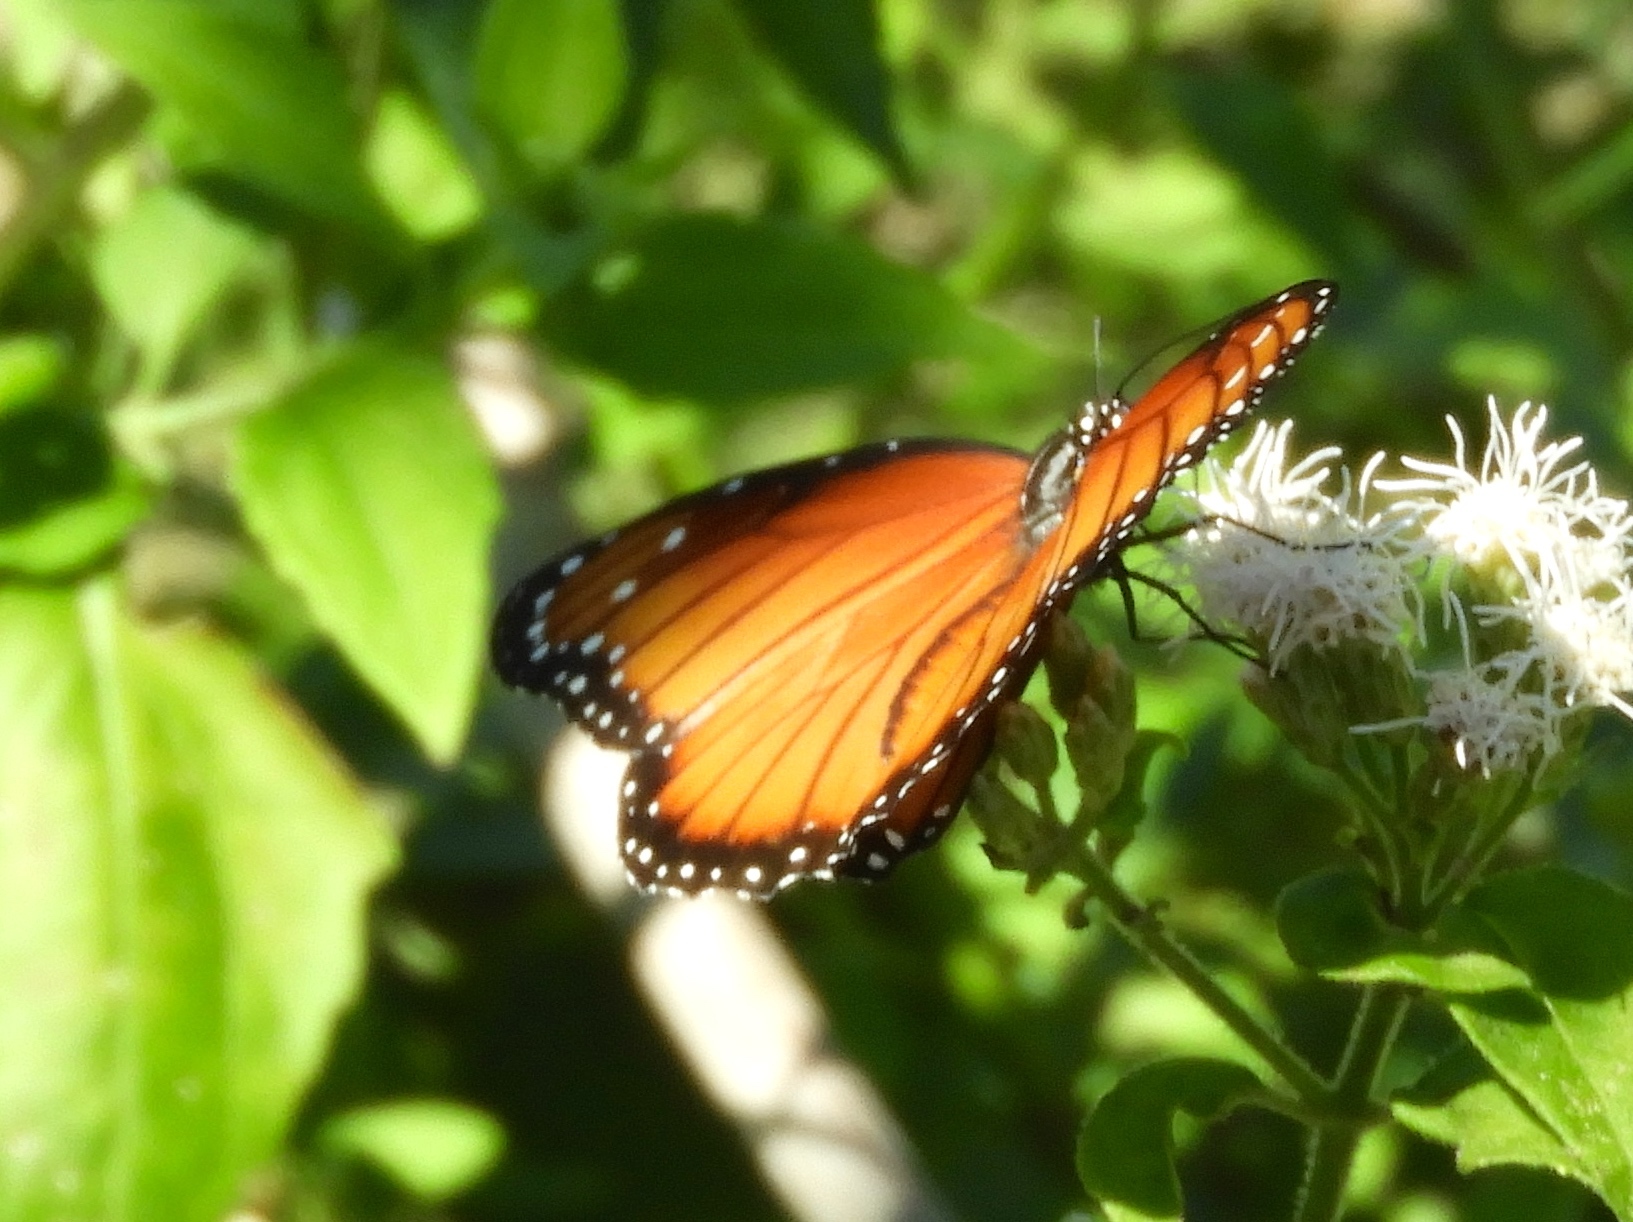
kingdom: Animalia
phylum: Arthropoda
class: Insecta
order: Lepidoptera
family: Nymphalidae
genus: Danaus
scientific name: Danaus eresimus
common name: Soldier
